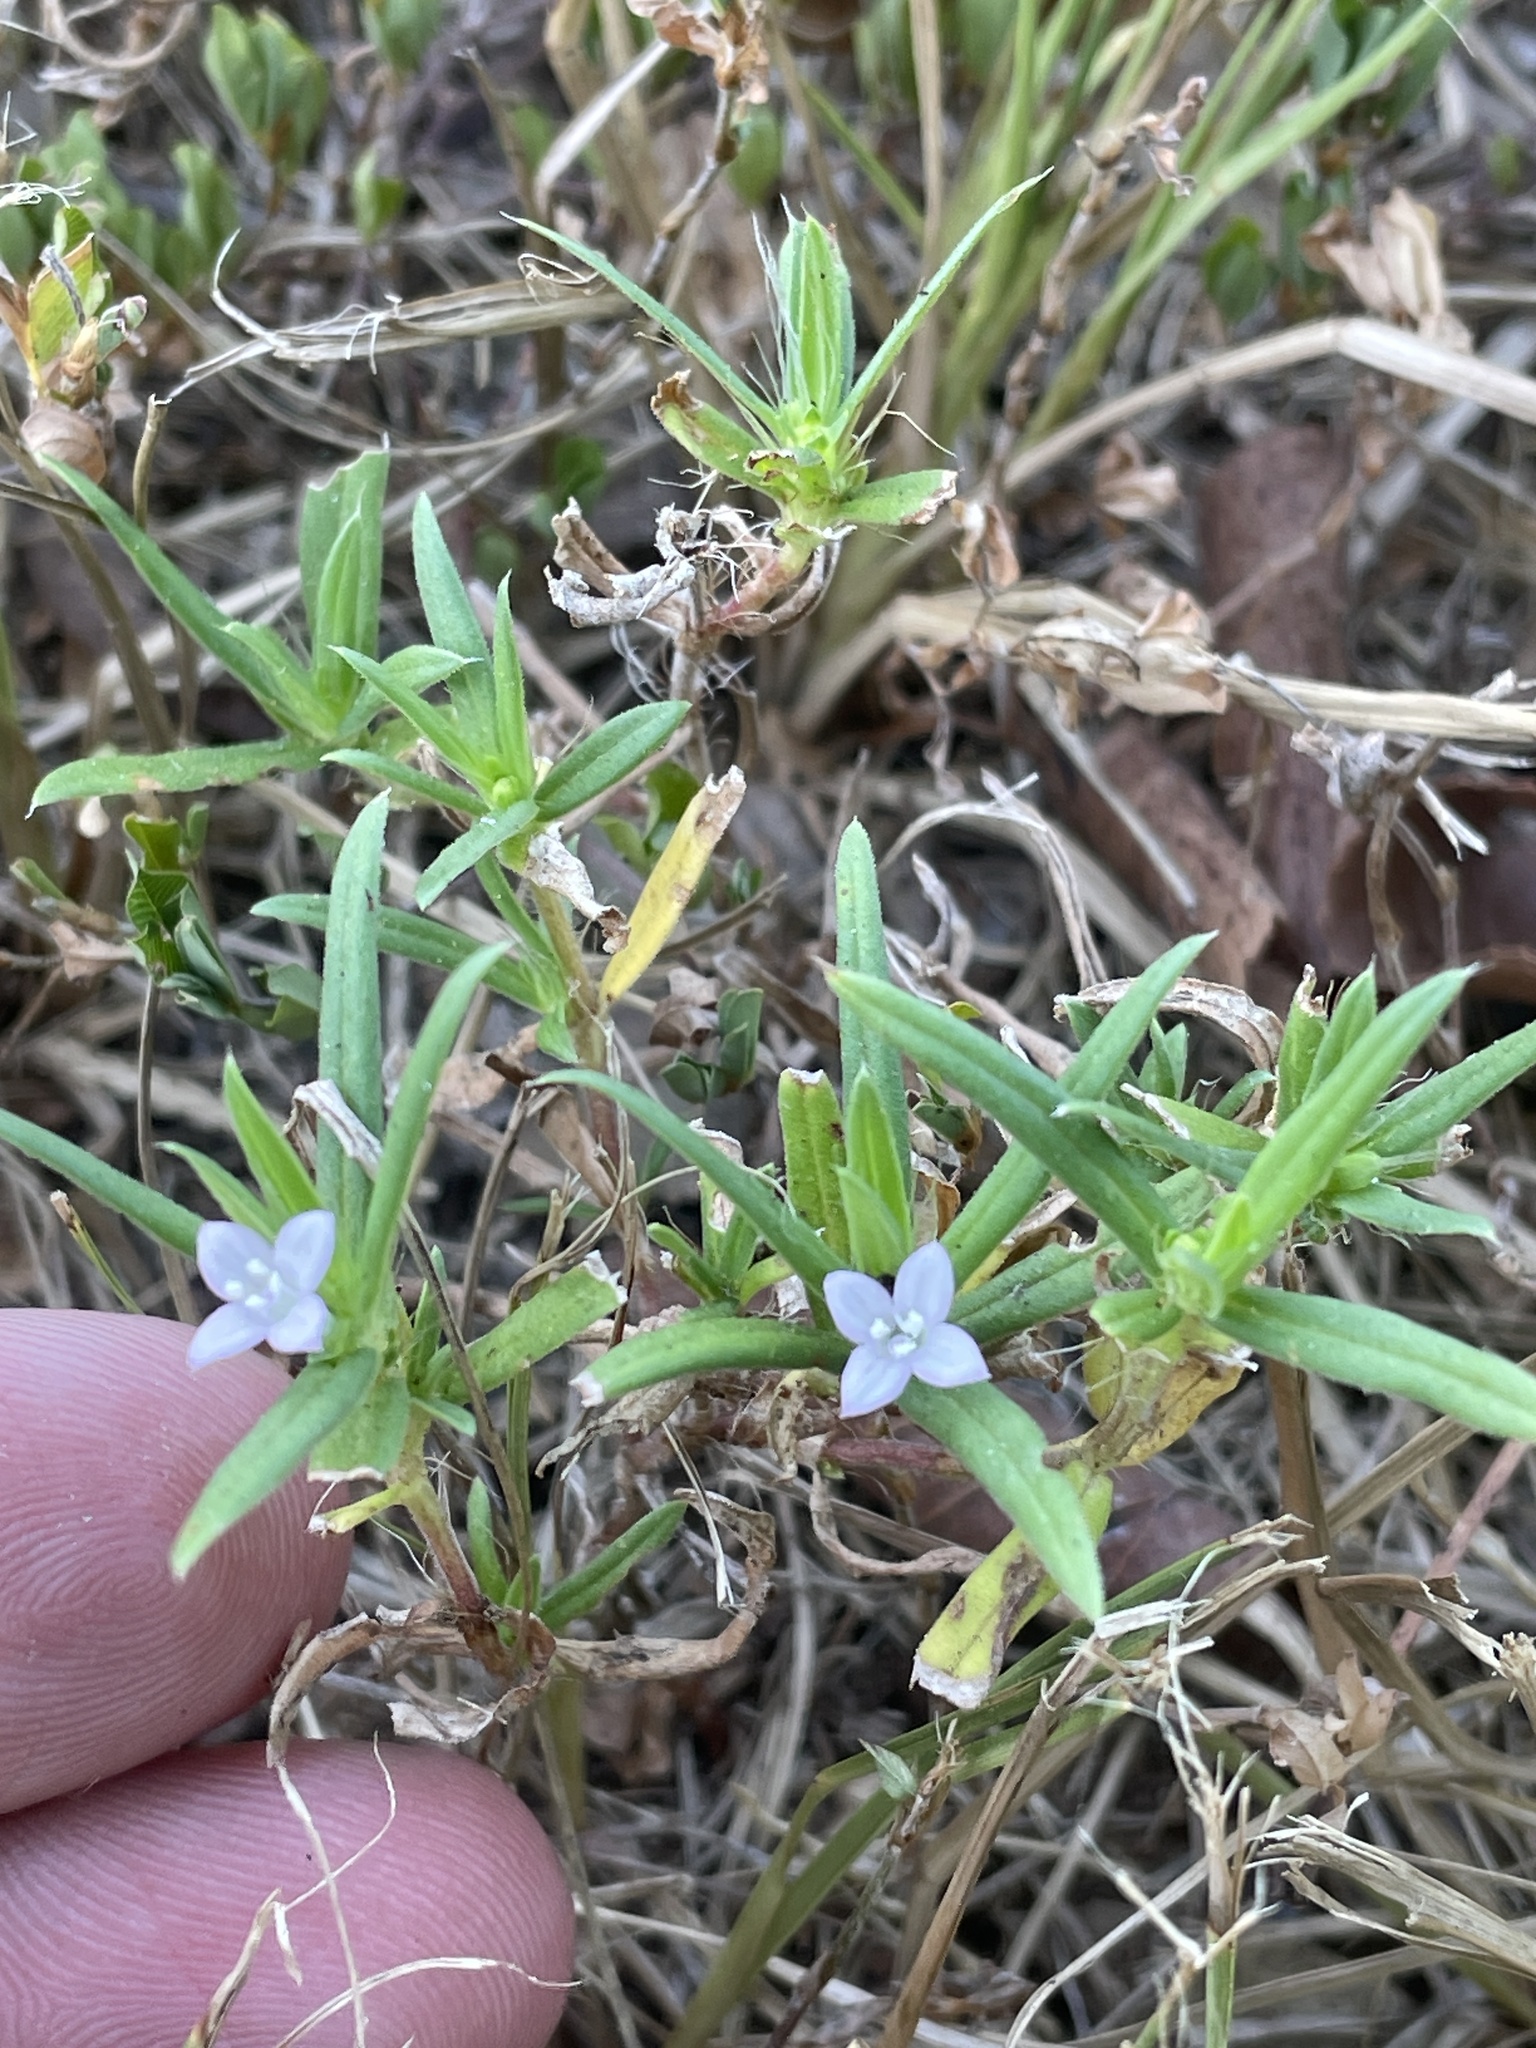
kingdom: Plantae
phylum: Tracheophyta
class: Magnoliopsida
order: Gentianales
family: Rubiaceae
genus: Hexasepalum
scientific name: Hexasepalum teres
